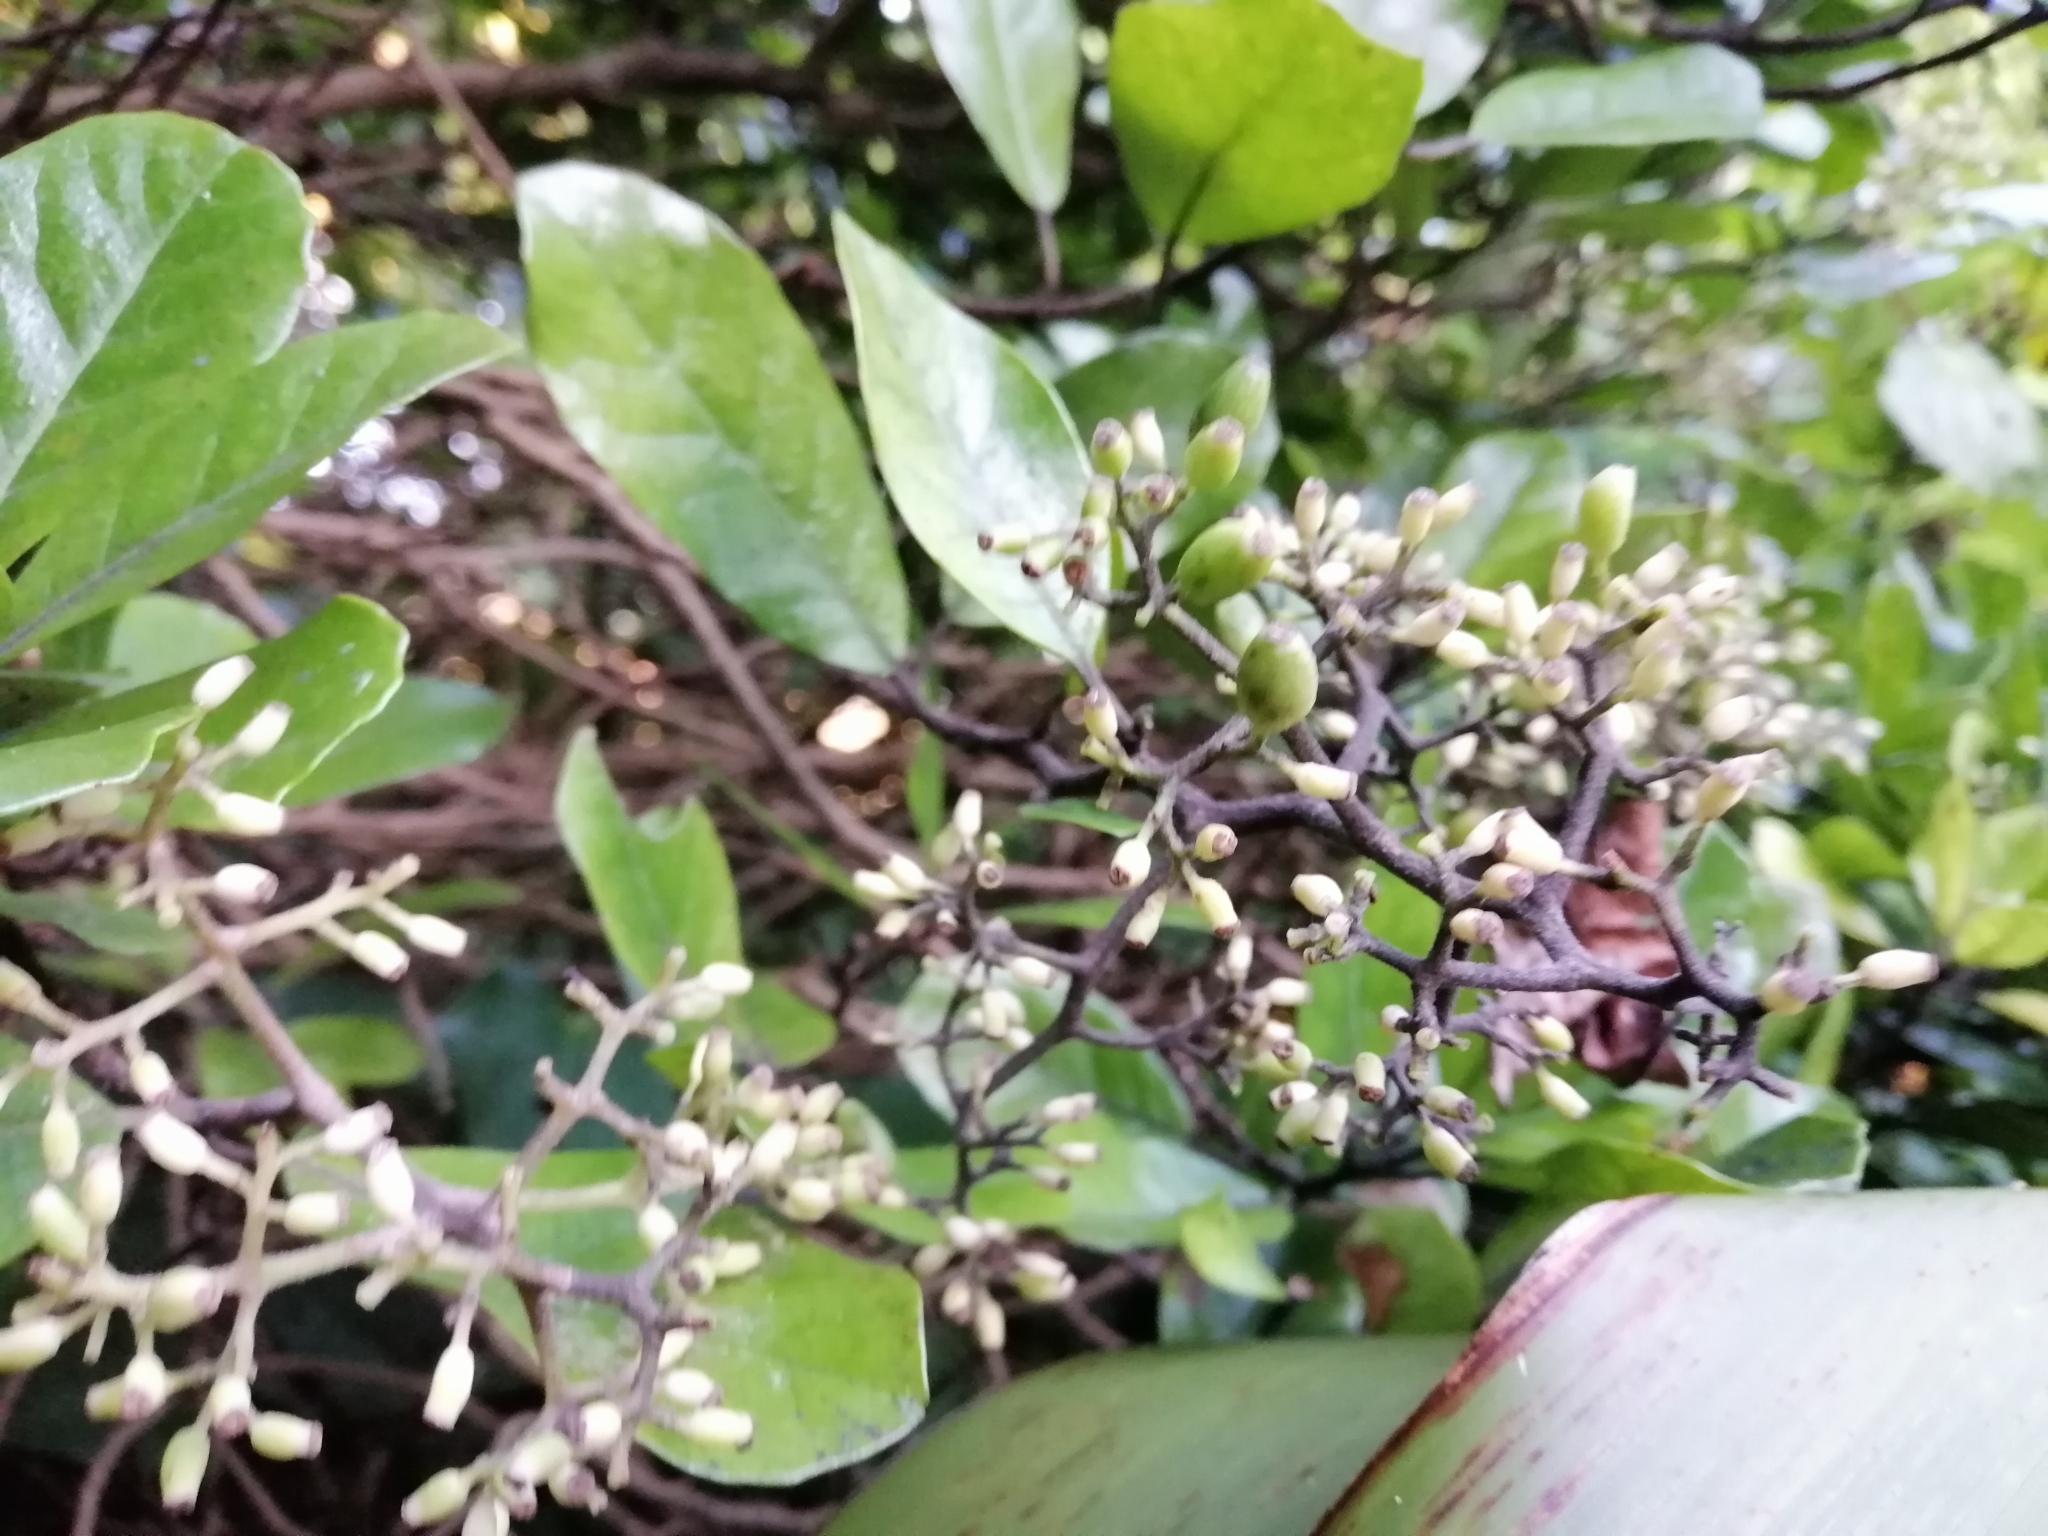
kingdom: Plantae
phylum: Tracheophyta
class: Magnoliopsida
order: Apiales
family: Pennantiaceae
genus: Pennantia
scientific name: Pennantia corymbosa
